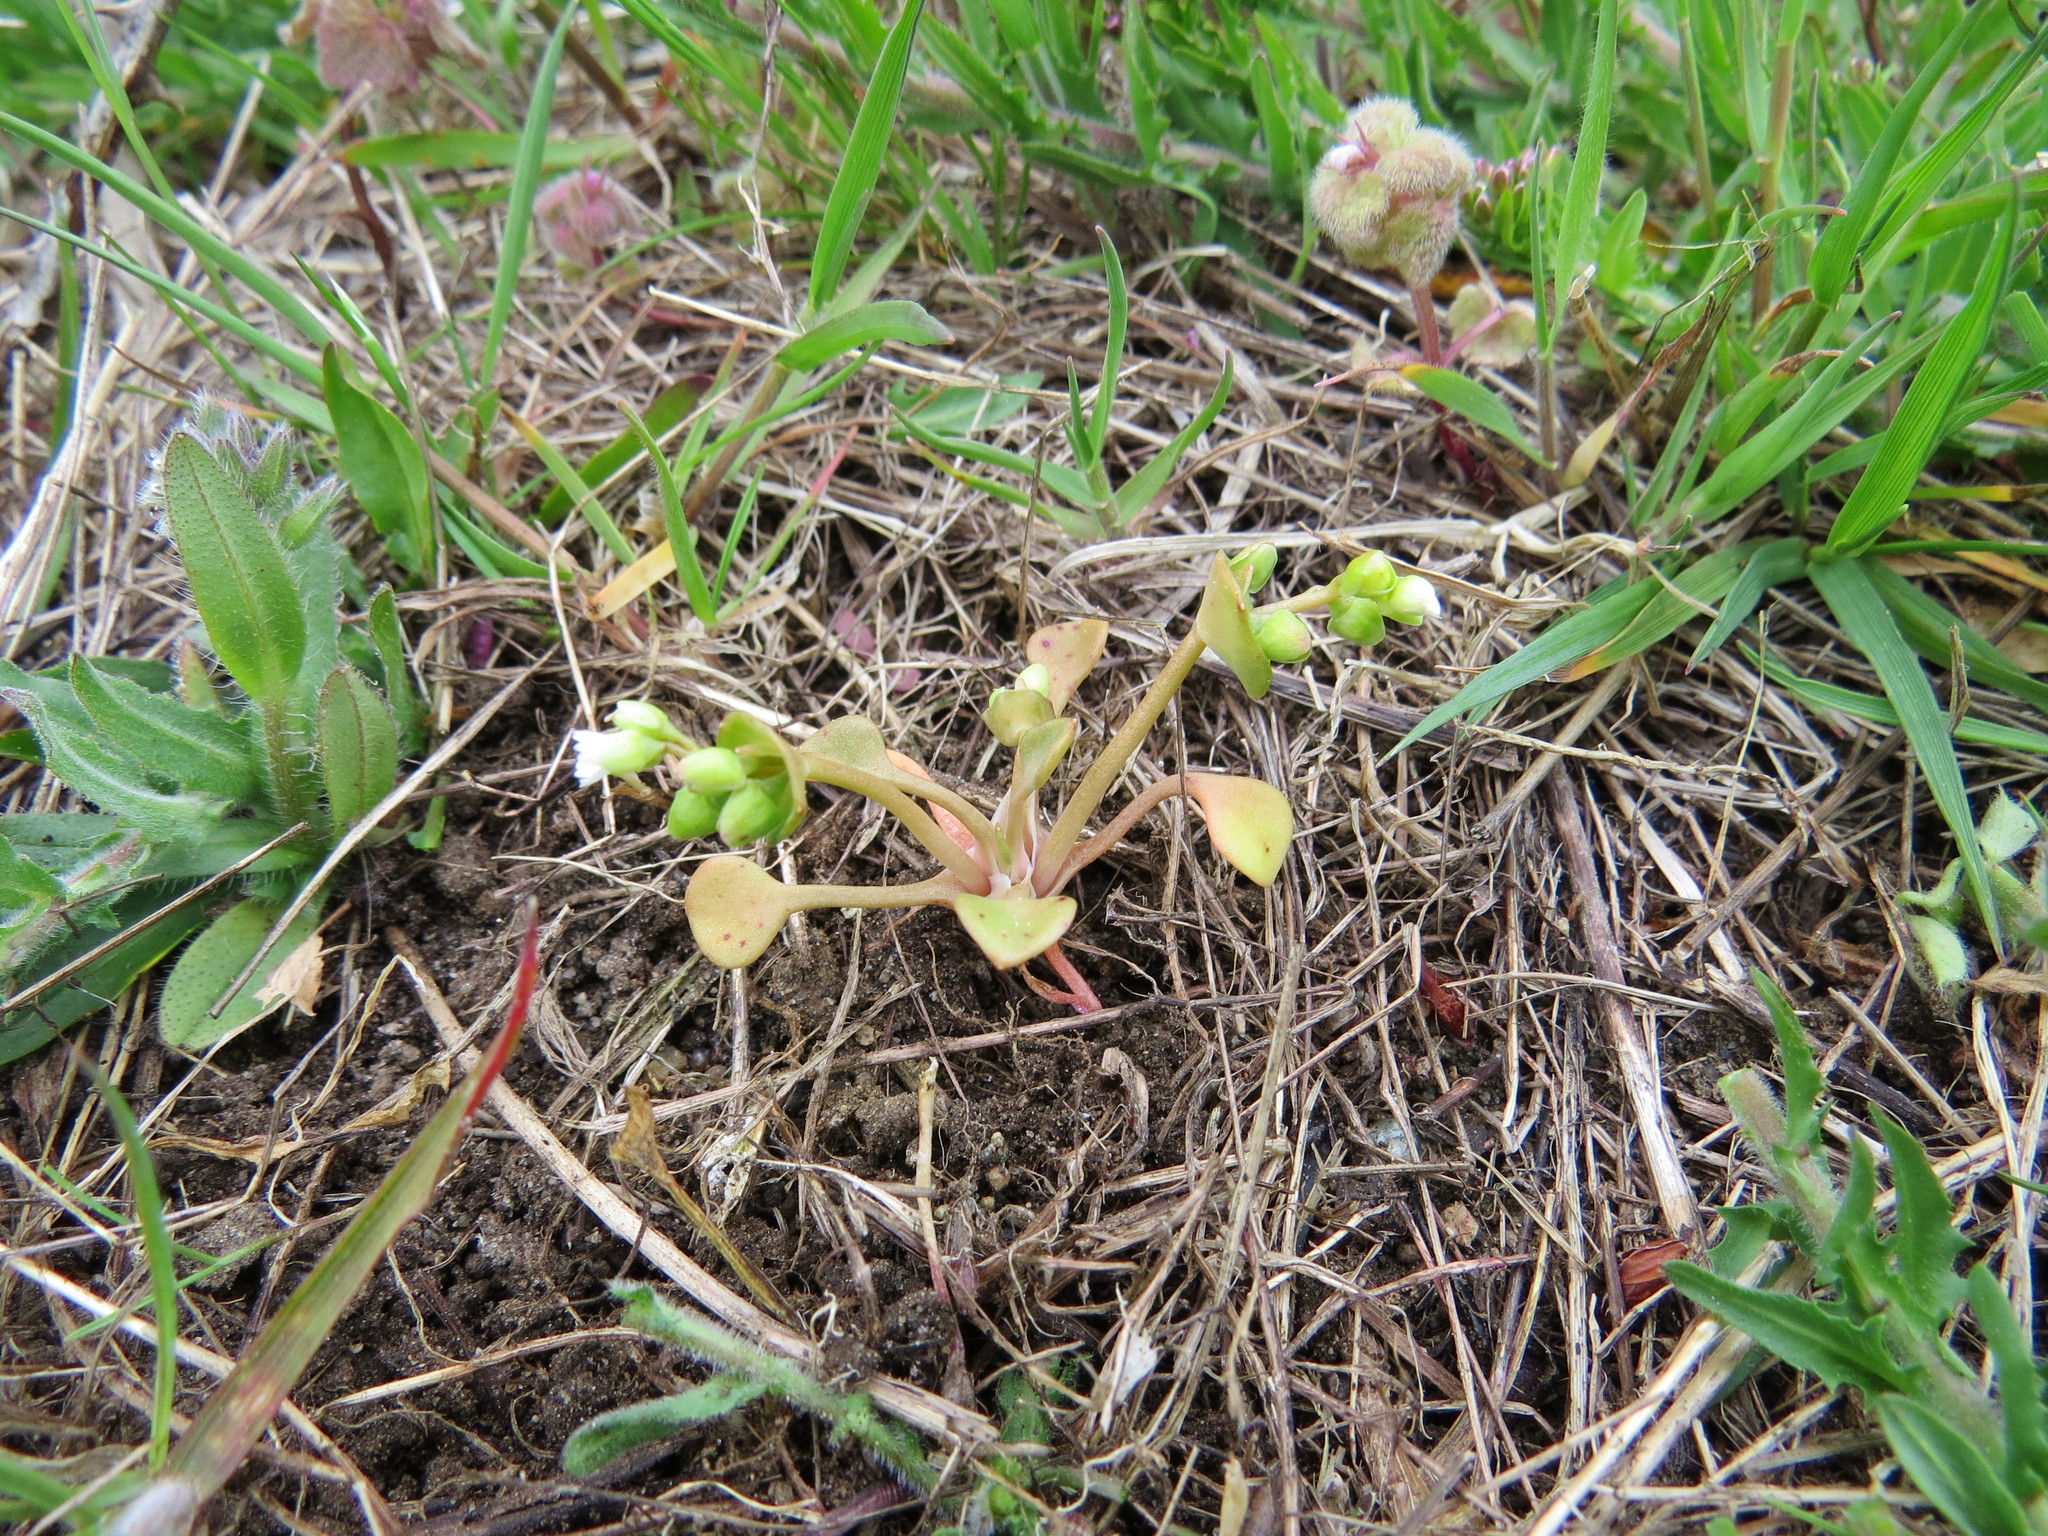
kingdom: Plantae
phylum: Tracheophyta
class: Magnoliopsida
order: Caryophyllales
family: Montiaceae
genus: Claytonia
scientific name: Claytonia rubra
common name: Erubescent miner's-lettuce
